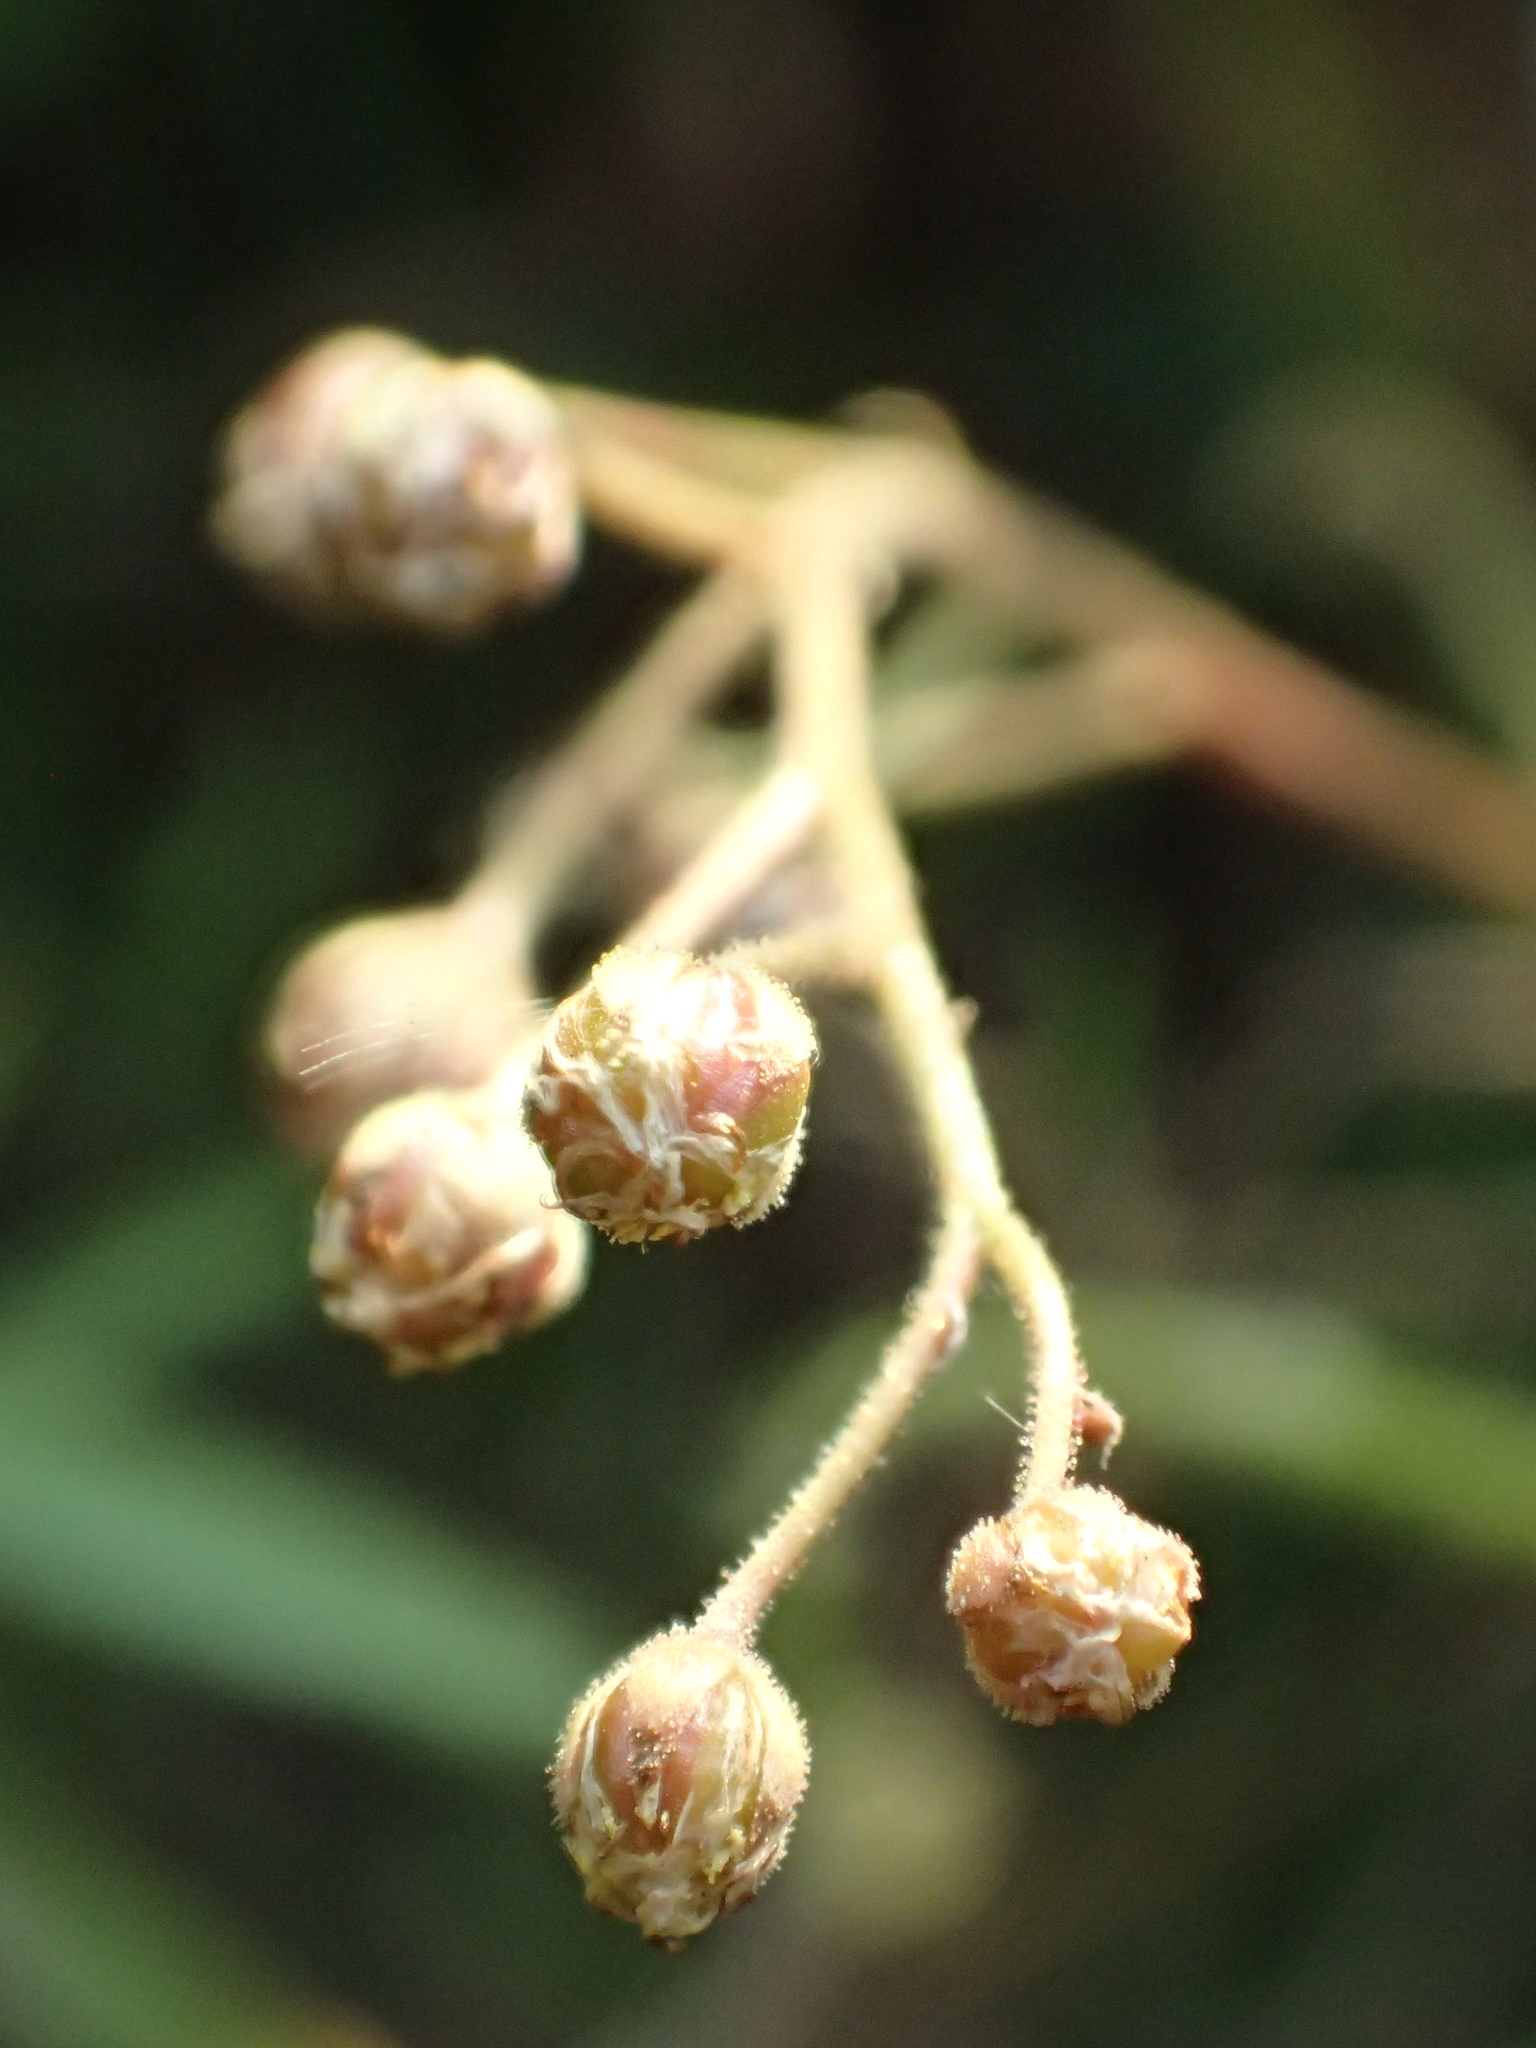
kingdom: Plantae
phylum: Tracheophyta
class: Magnoliopsida
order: Caryophyllales
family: Droseraceae
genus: Drosera
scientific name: Drosera finlaysoniana
